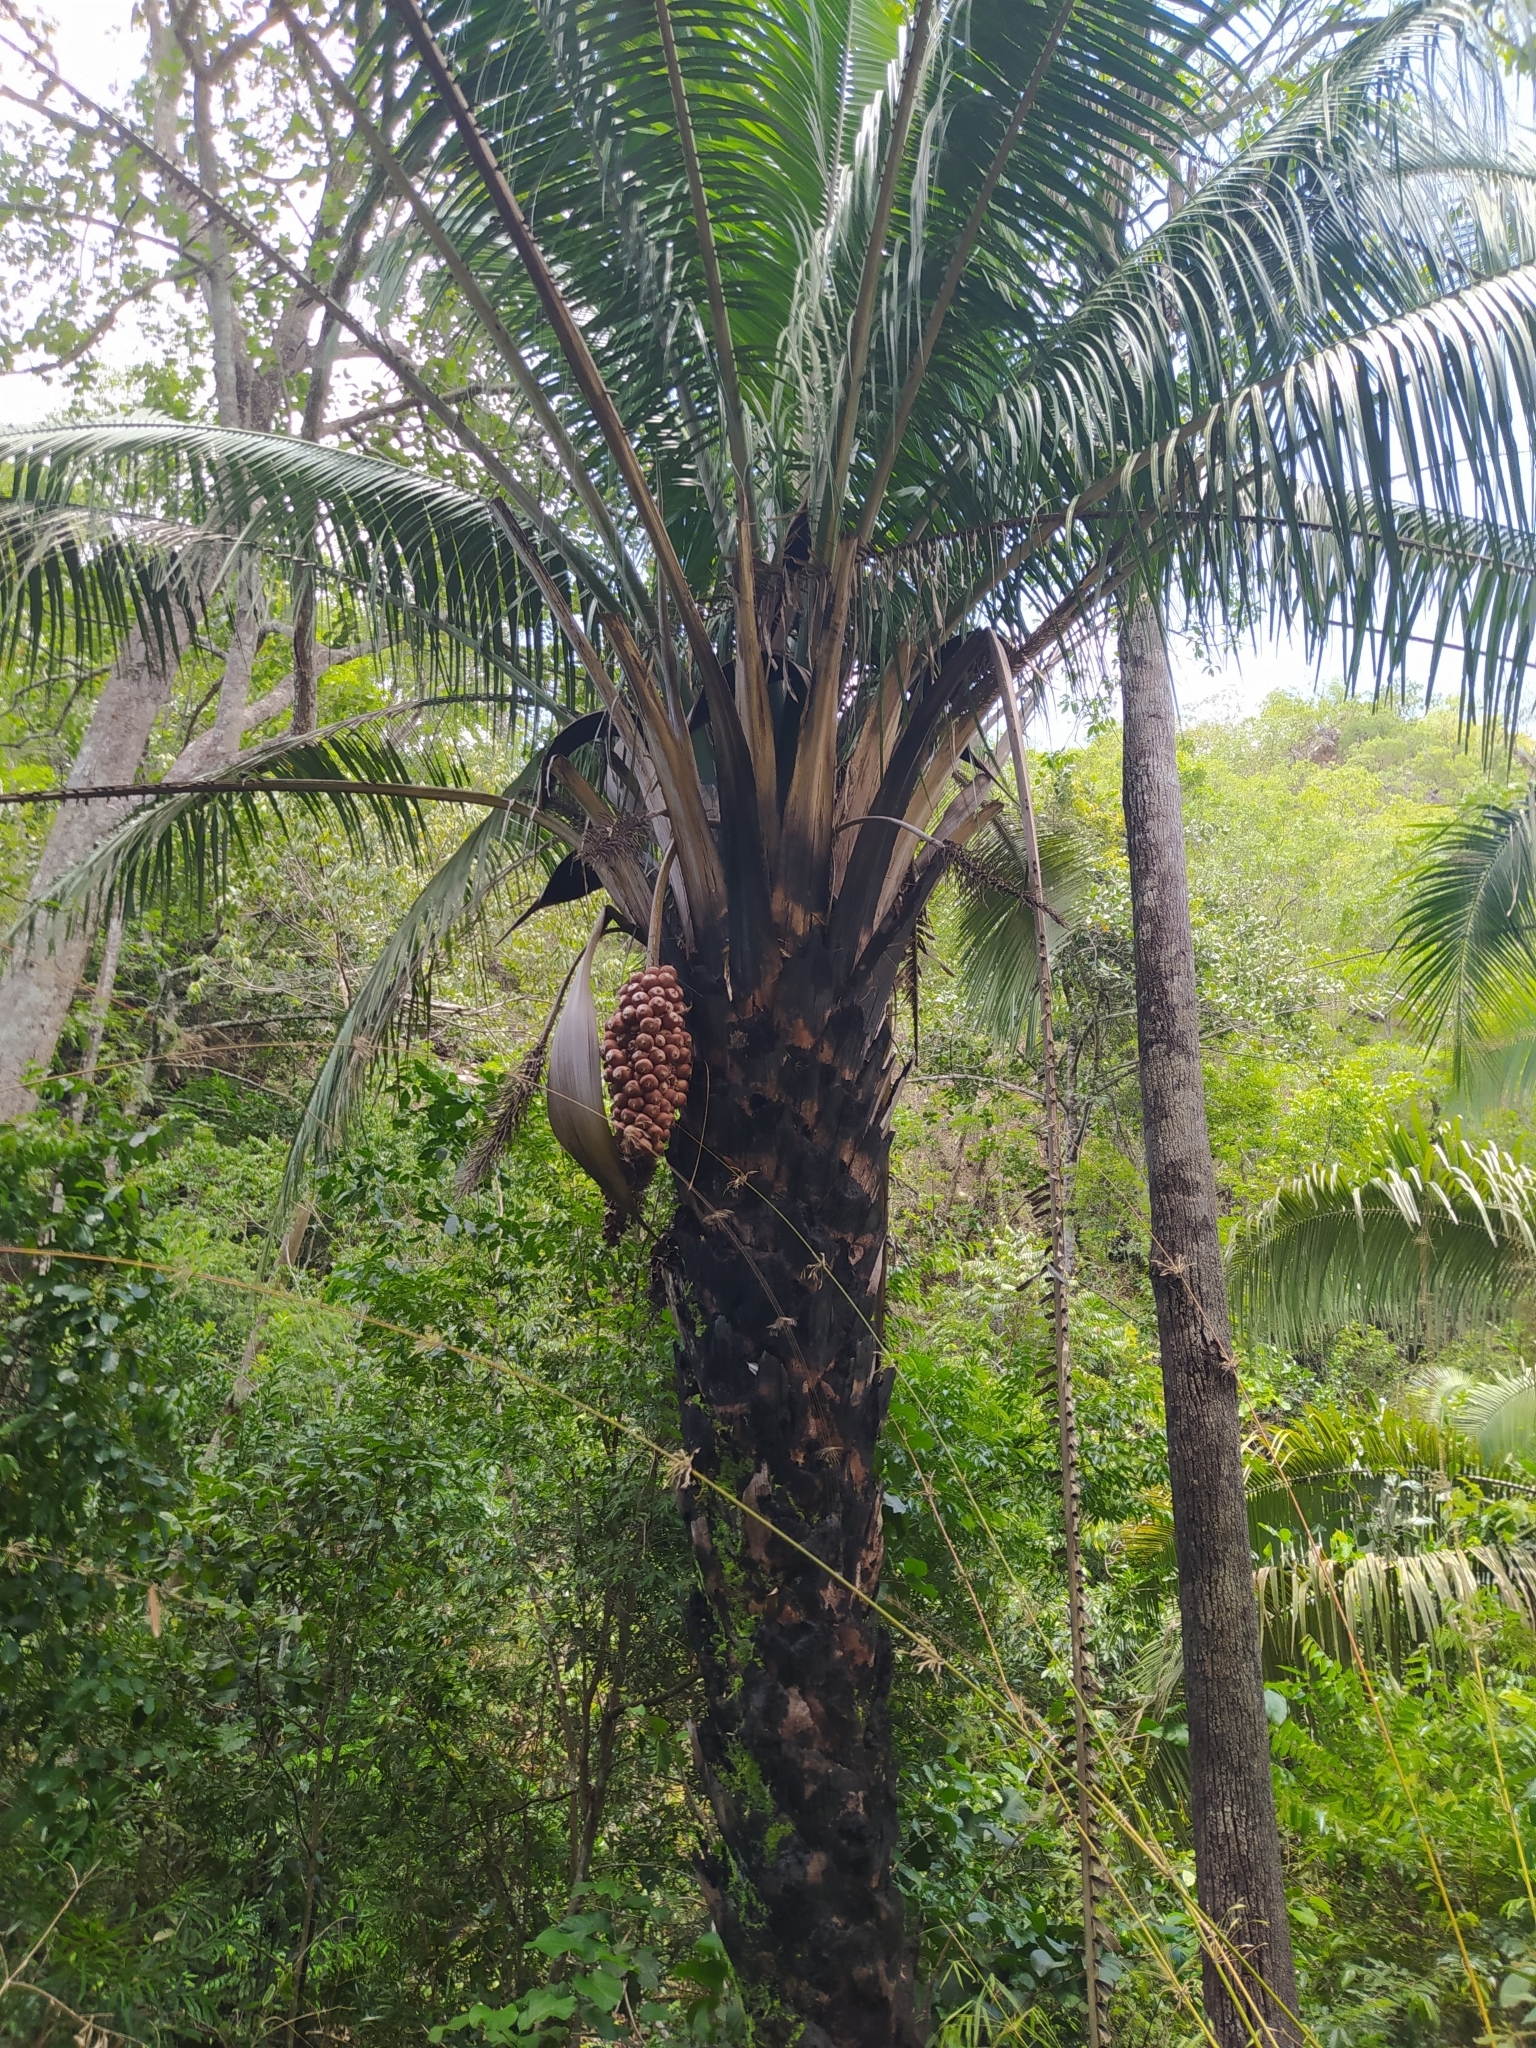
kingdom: Plantae
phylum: Tracheophyta
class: Liliopsida
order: Arecales
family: Arecaceae
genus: Attalea
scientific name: Attalea brasiliensis
